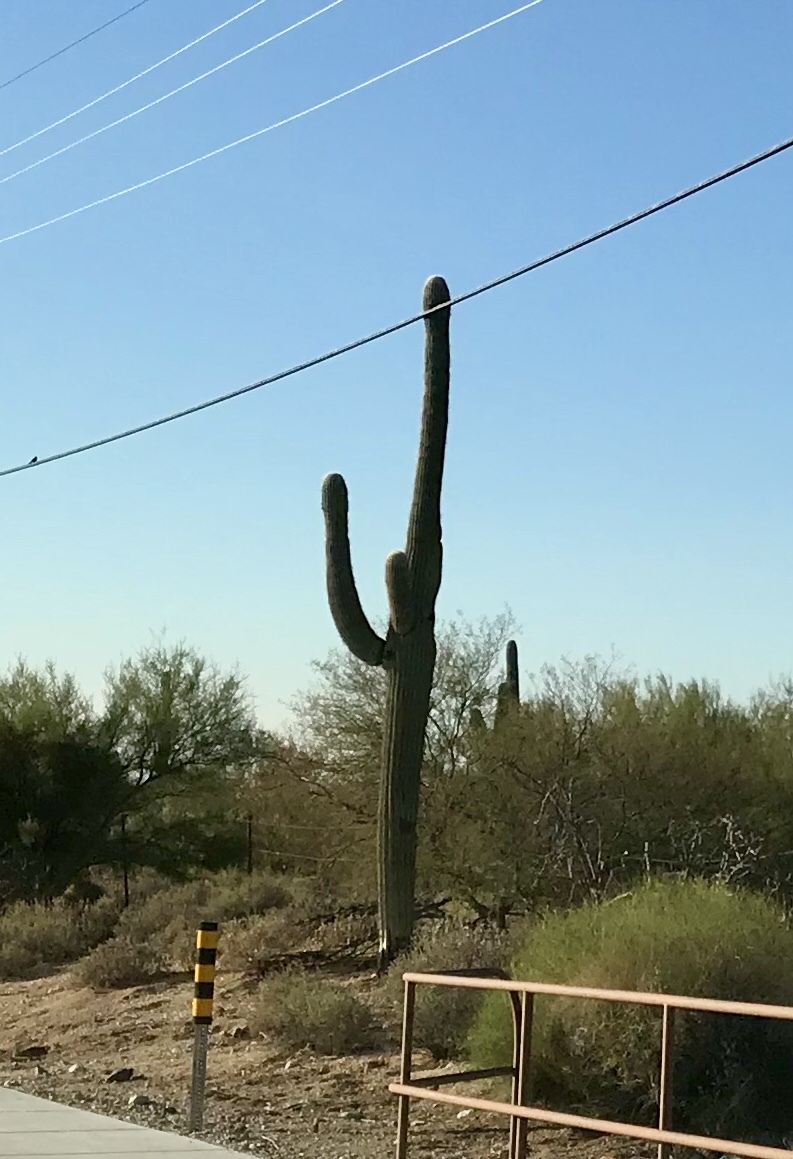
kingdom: Plantae
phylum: Tracheophyta
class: Magnoliopsida
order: Caryophyllales
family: Cactaceae
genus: Carnegiea
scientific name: Carnegiea gigantea
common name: Saguaro
